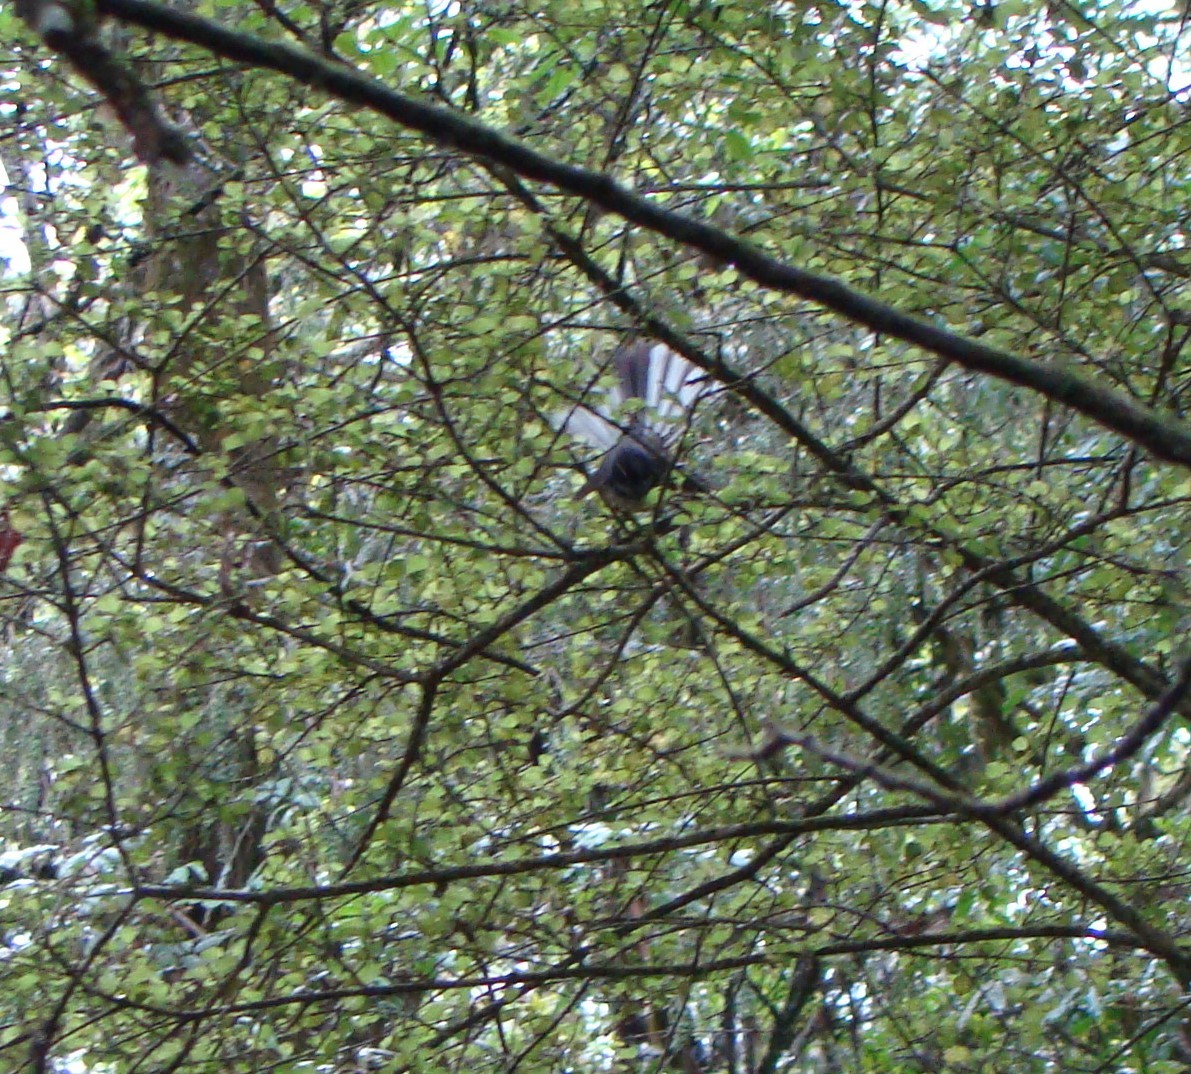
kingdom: Animalia
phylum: Chordata
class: Aves
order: Passeriformes
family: Rhipiduridae
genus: Rhipidura
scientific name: Rhipidura fuliginosa
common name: New zealand fantail
